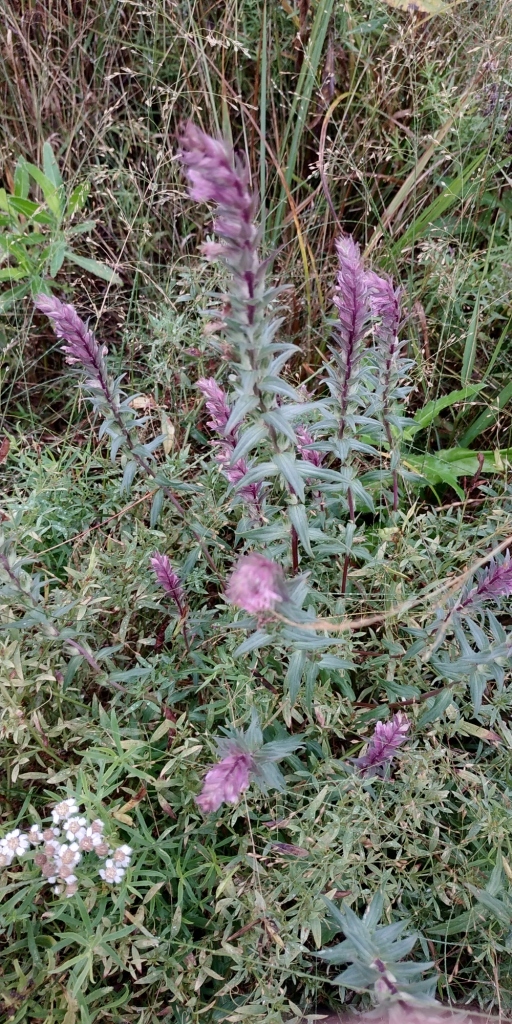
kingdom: Plantae
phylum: Tracheophyta
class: Magnoliopsida
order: Lamiales
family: Orobanchaceae
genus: Odontites
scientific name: Odontites vulgaris
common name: Broomrape
